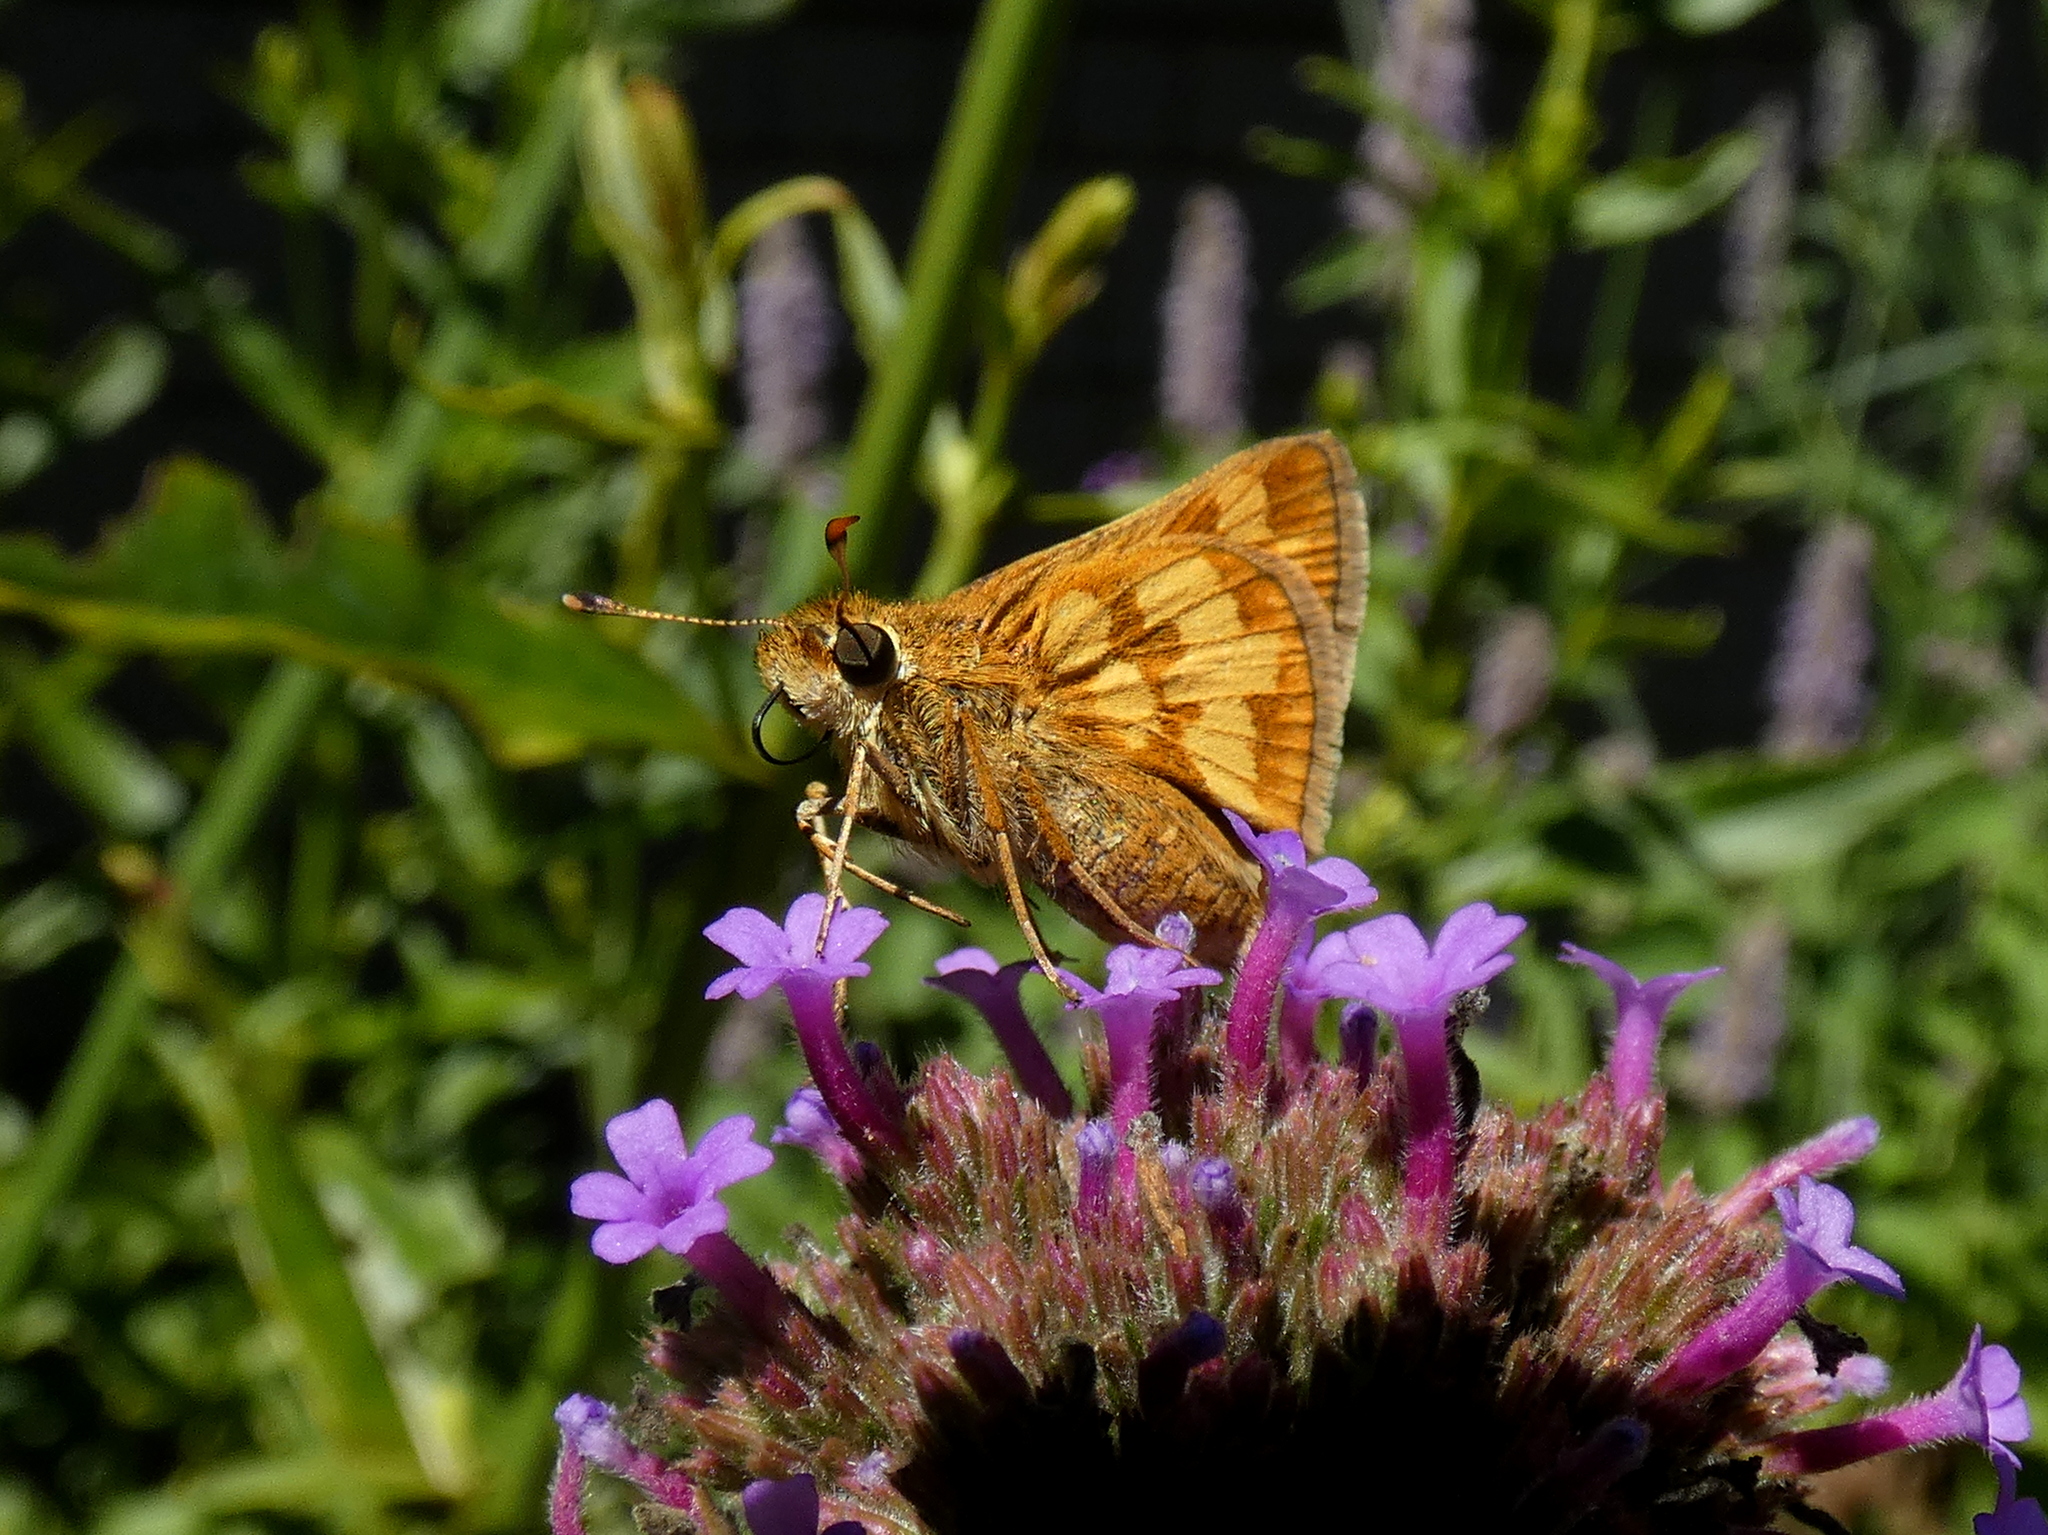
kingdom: Animalia
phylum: Arthropoda
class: Insecta
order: Lepidoptera
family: Hesperiidae
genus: Polites
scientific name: Polites coras
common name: Peck's skipper
